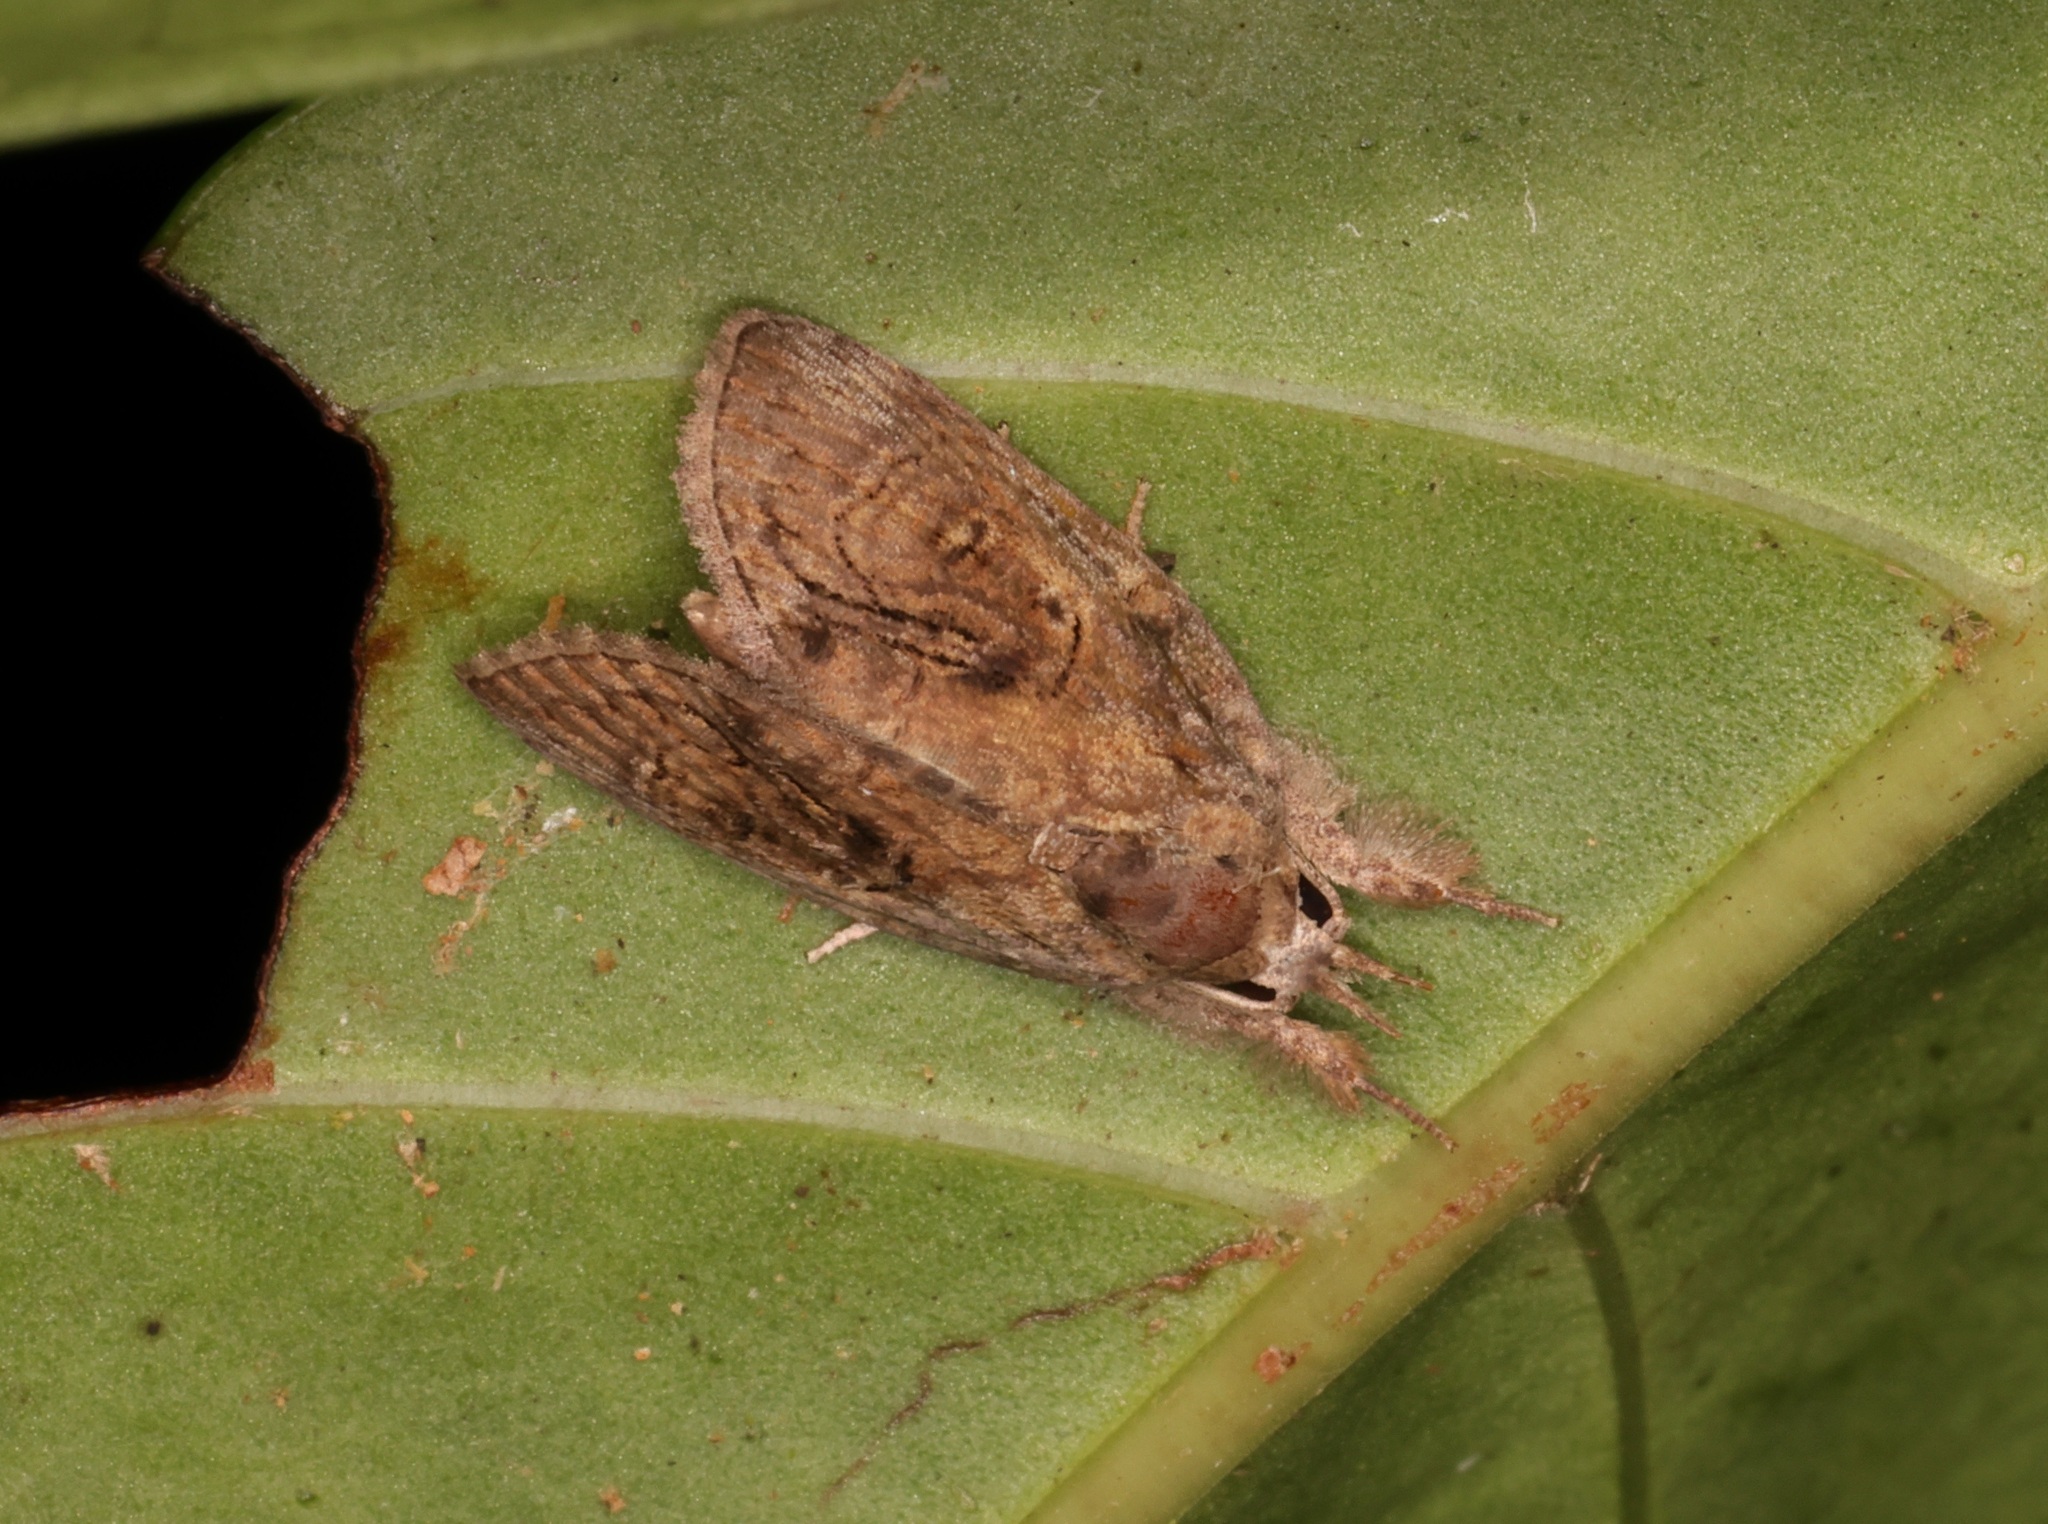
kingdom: Animalia
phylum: Arthropoda
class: Insecta
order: Lepidoptera
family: Nolidae
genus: Selepa
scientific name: Selepa celtis
